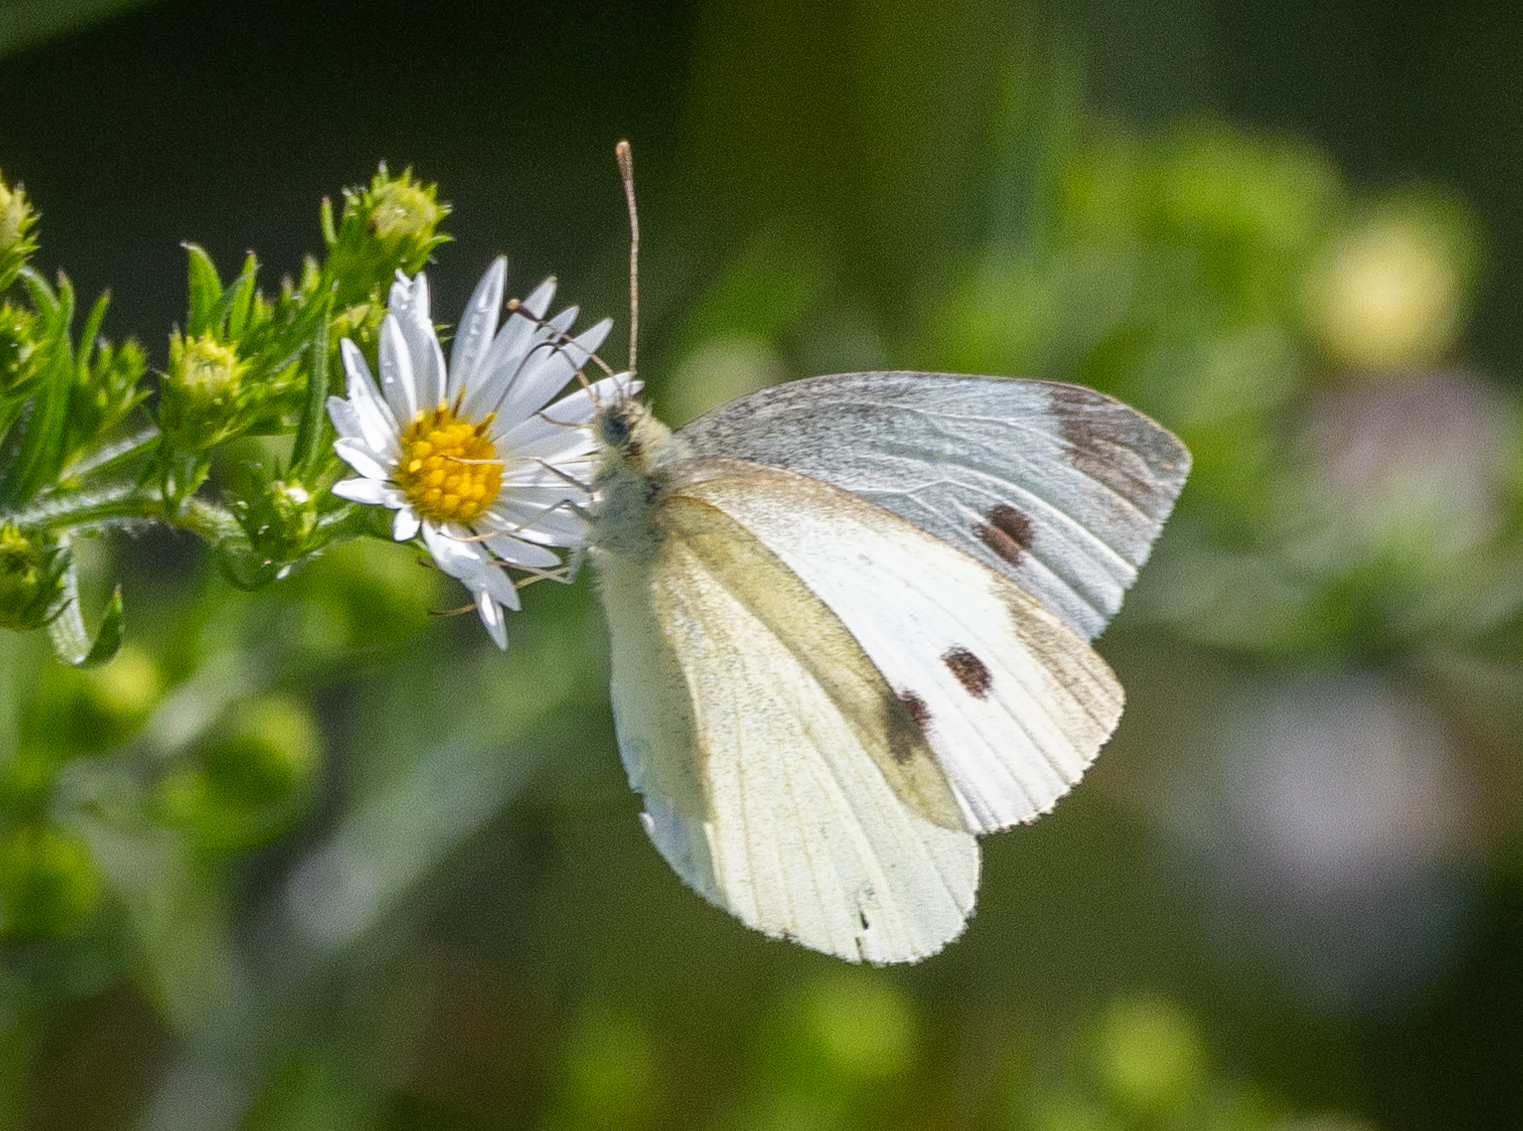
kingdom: Animalia
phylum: Arthropoda
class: Insecta
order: Lepidoptera
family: Pieridae
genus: Pieris
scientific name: Pieris rapae
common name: Small white
